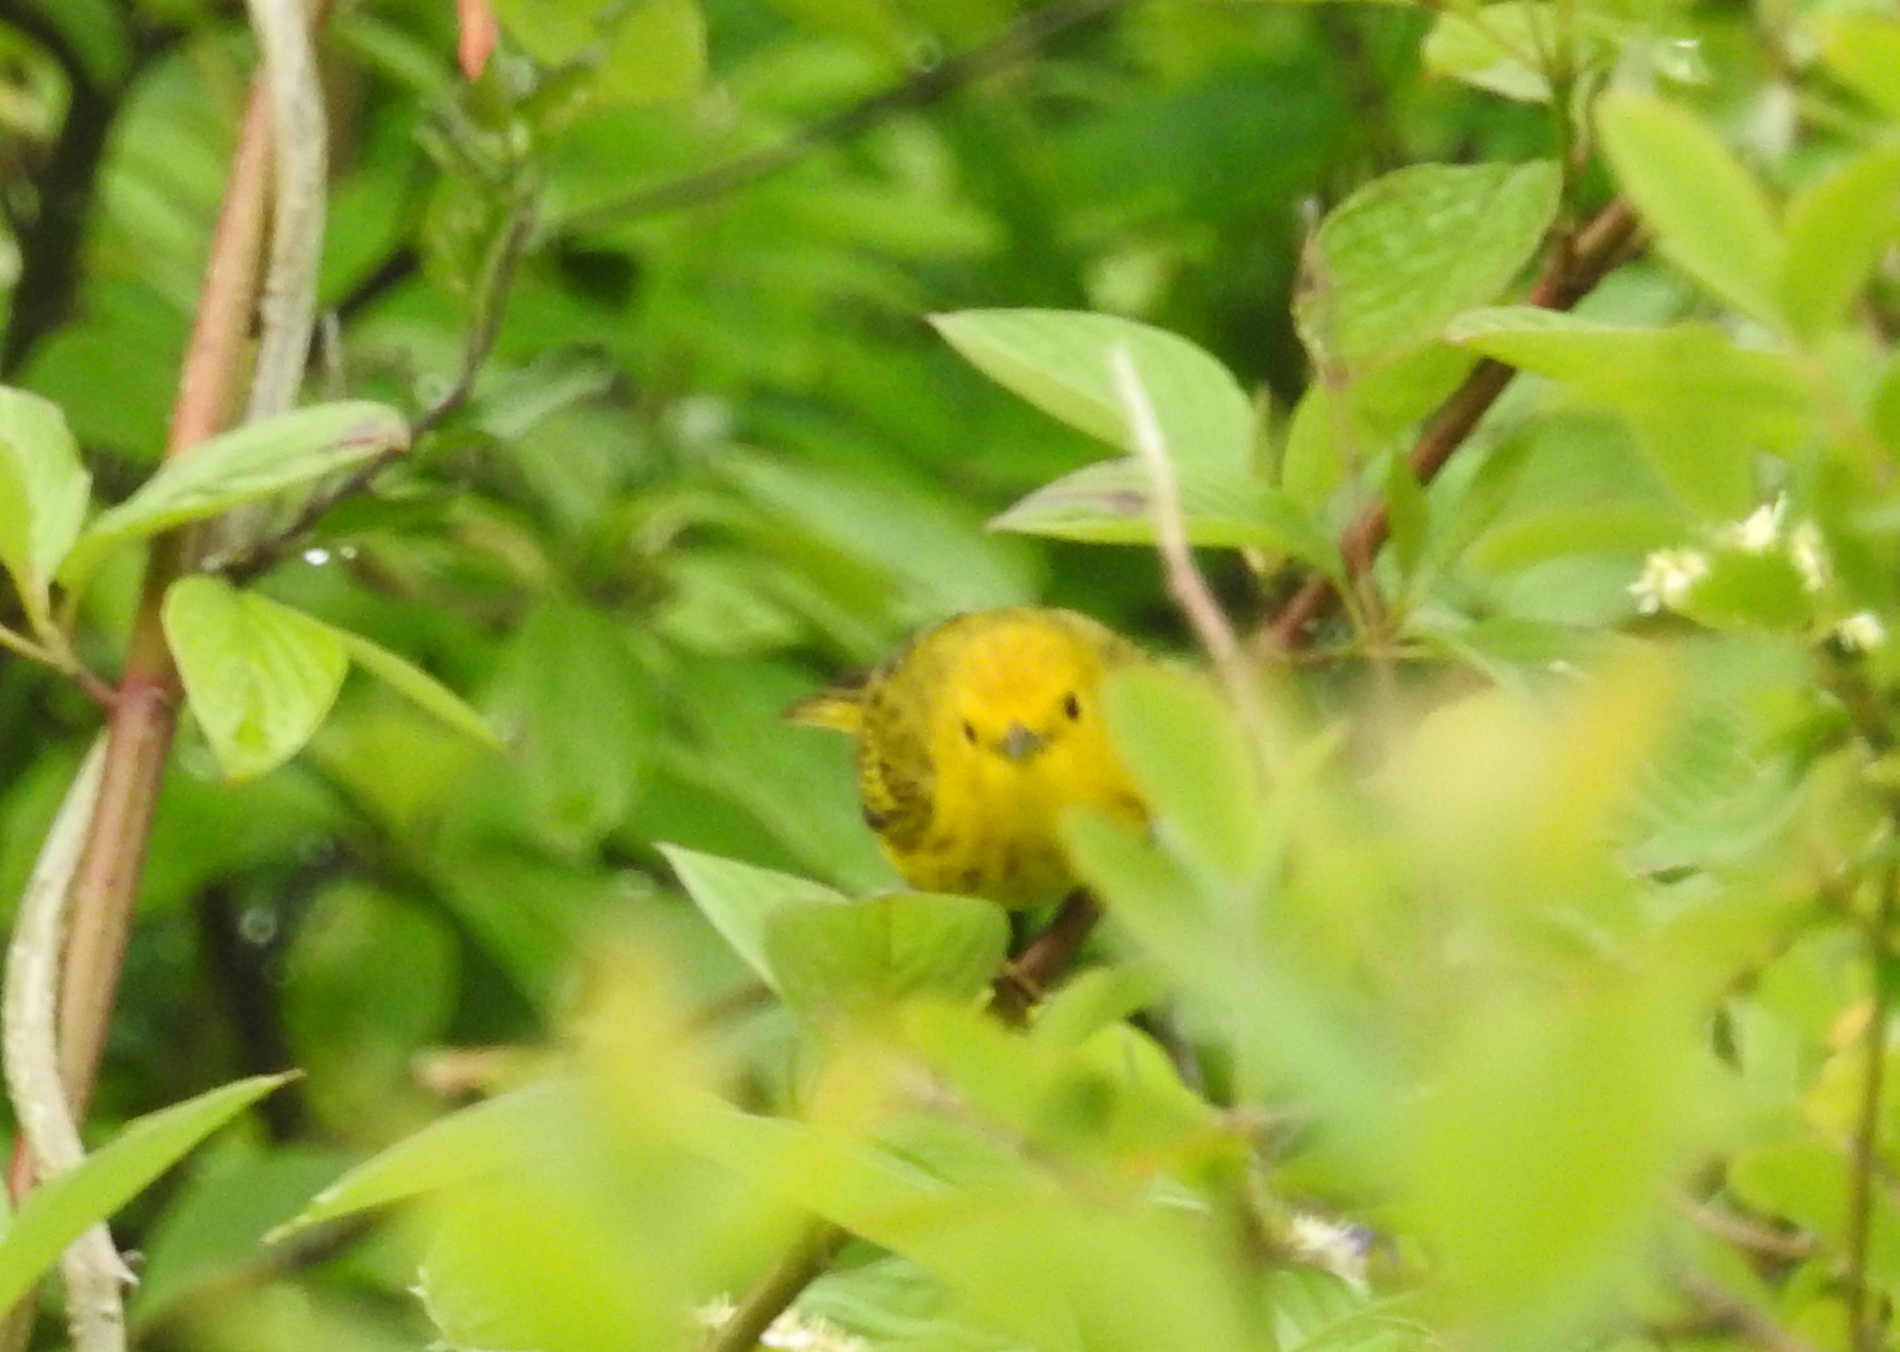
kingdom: Animalia
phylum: Chordata
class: Aves
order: Passeriformes
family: Parulidae
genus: Setophaga
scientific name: Setophaga petechia
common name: Yellow warbler
